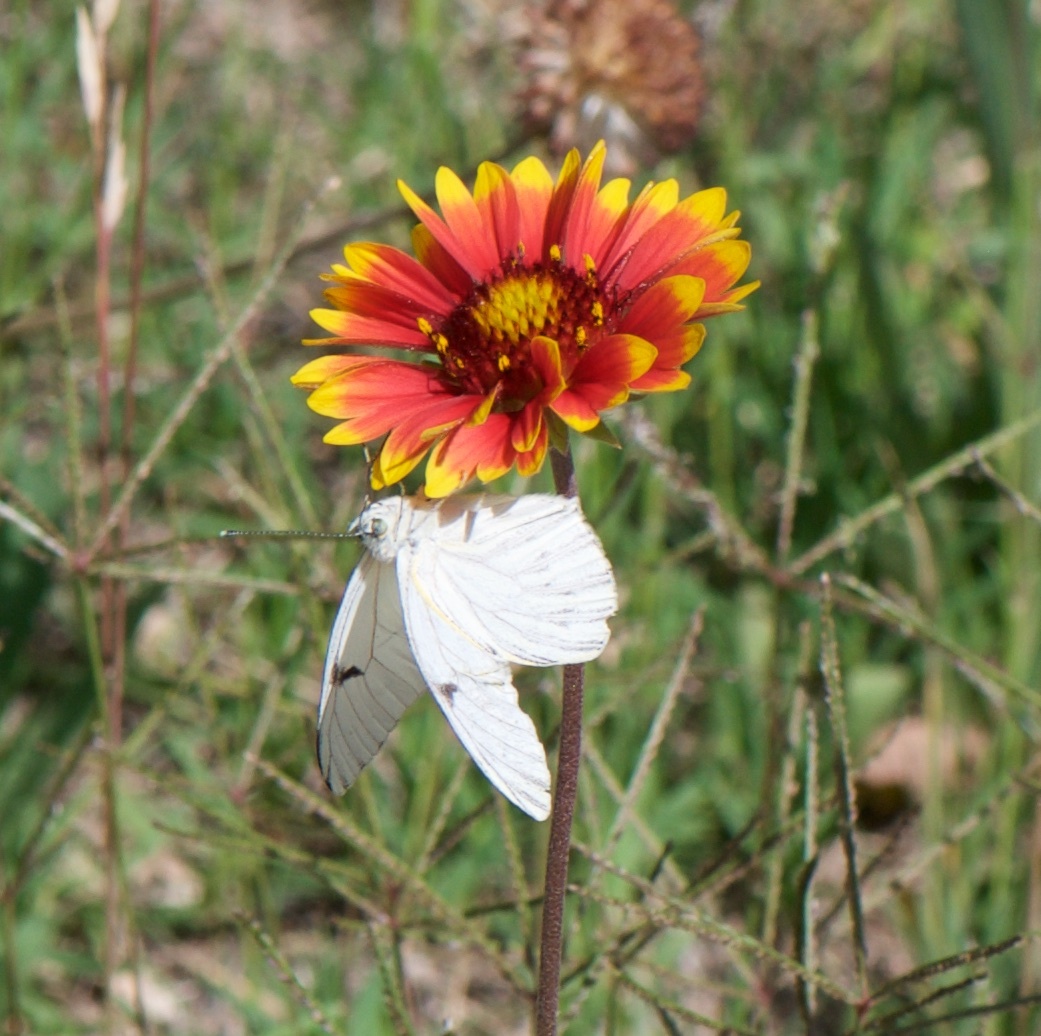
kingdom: Animalia
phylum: Arthropoda
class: Insecta
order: Lepidoptera
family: Pieridae
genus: Tatochila
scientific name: Tatochila mercedis
